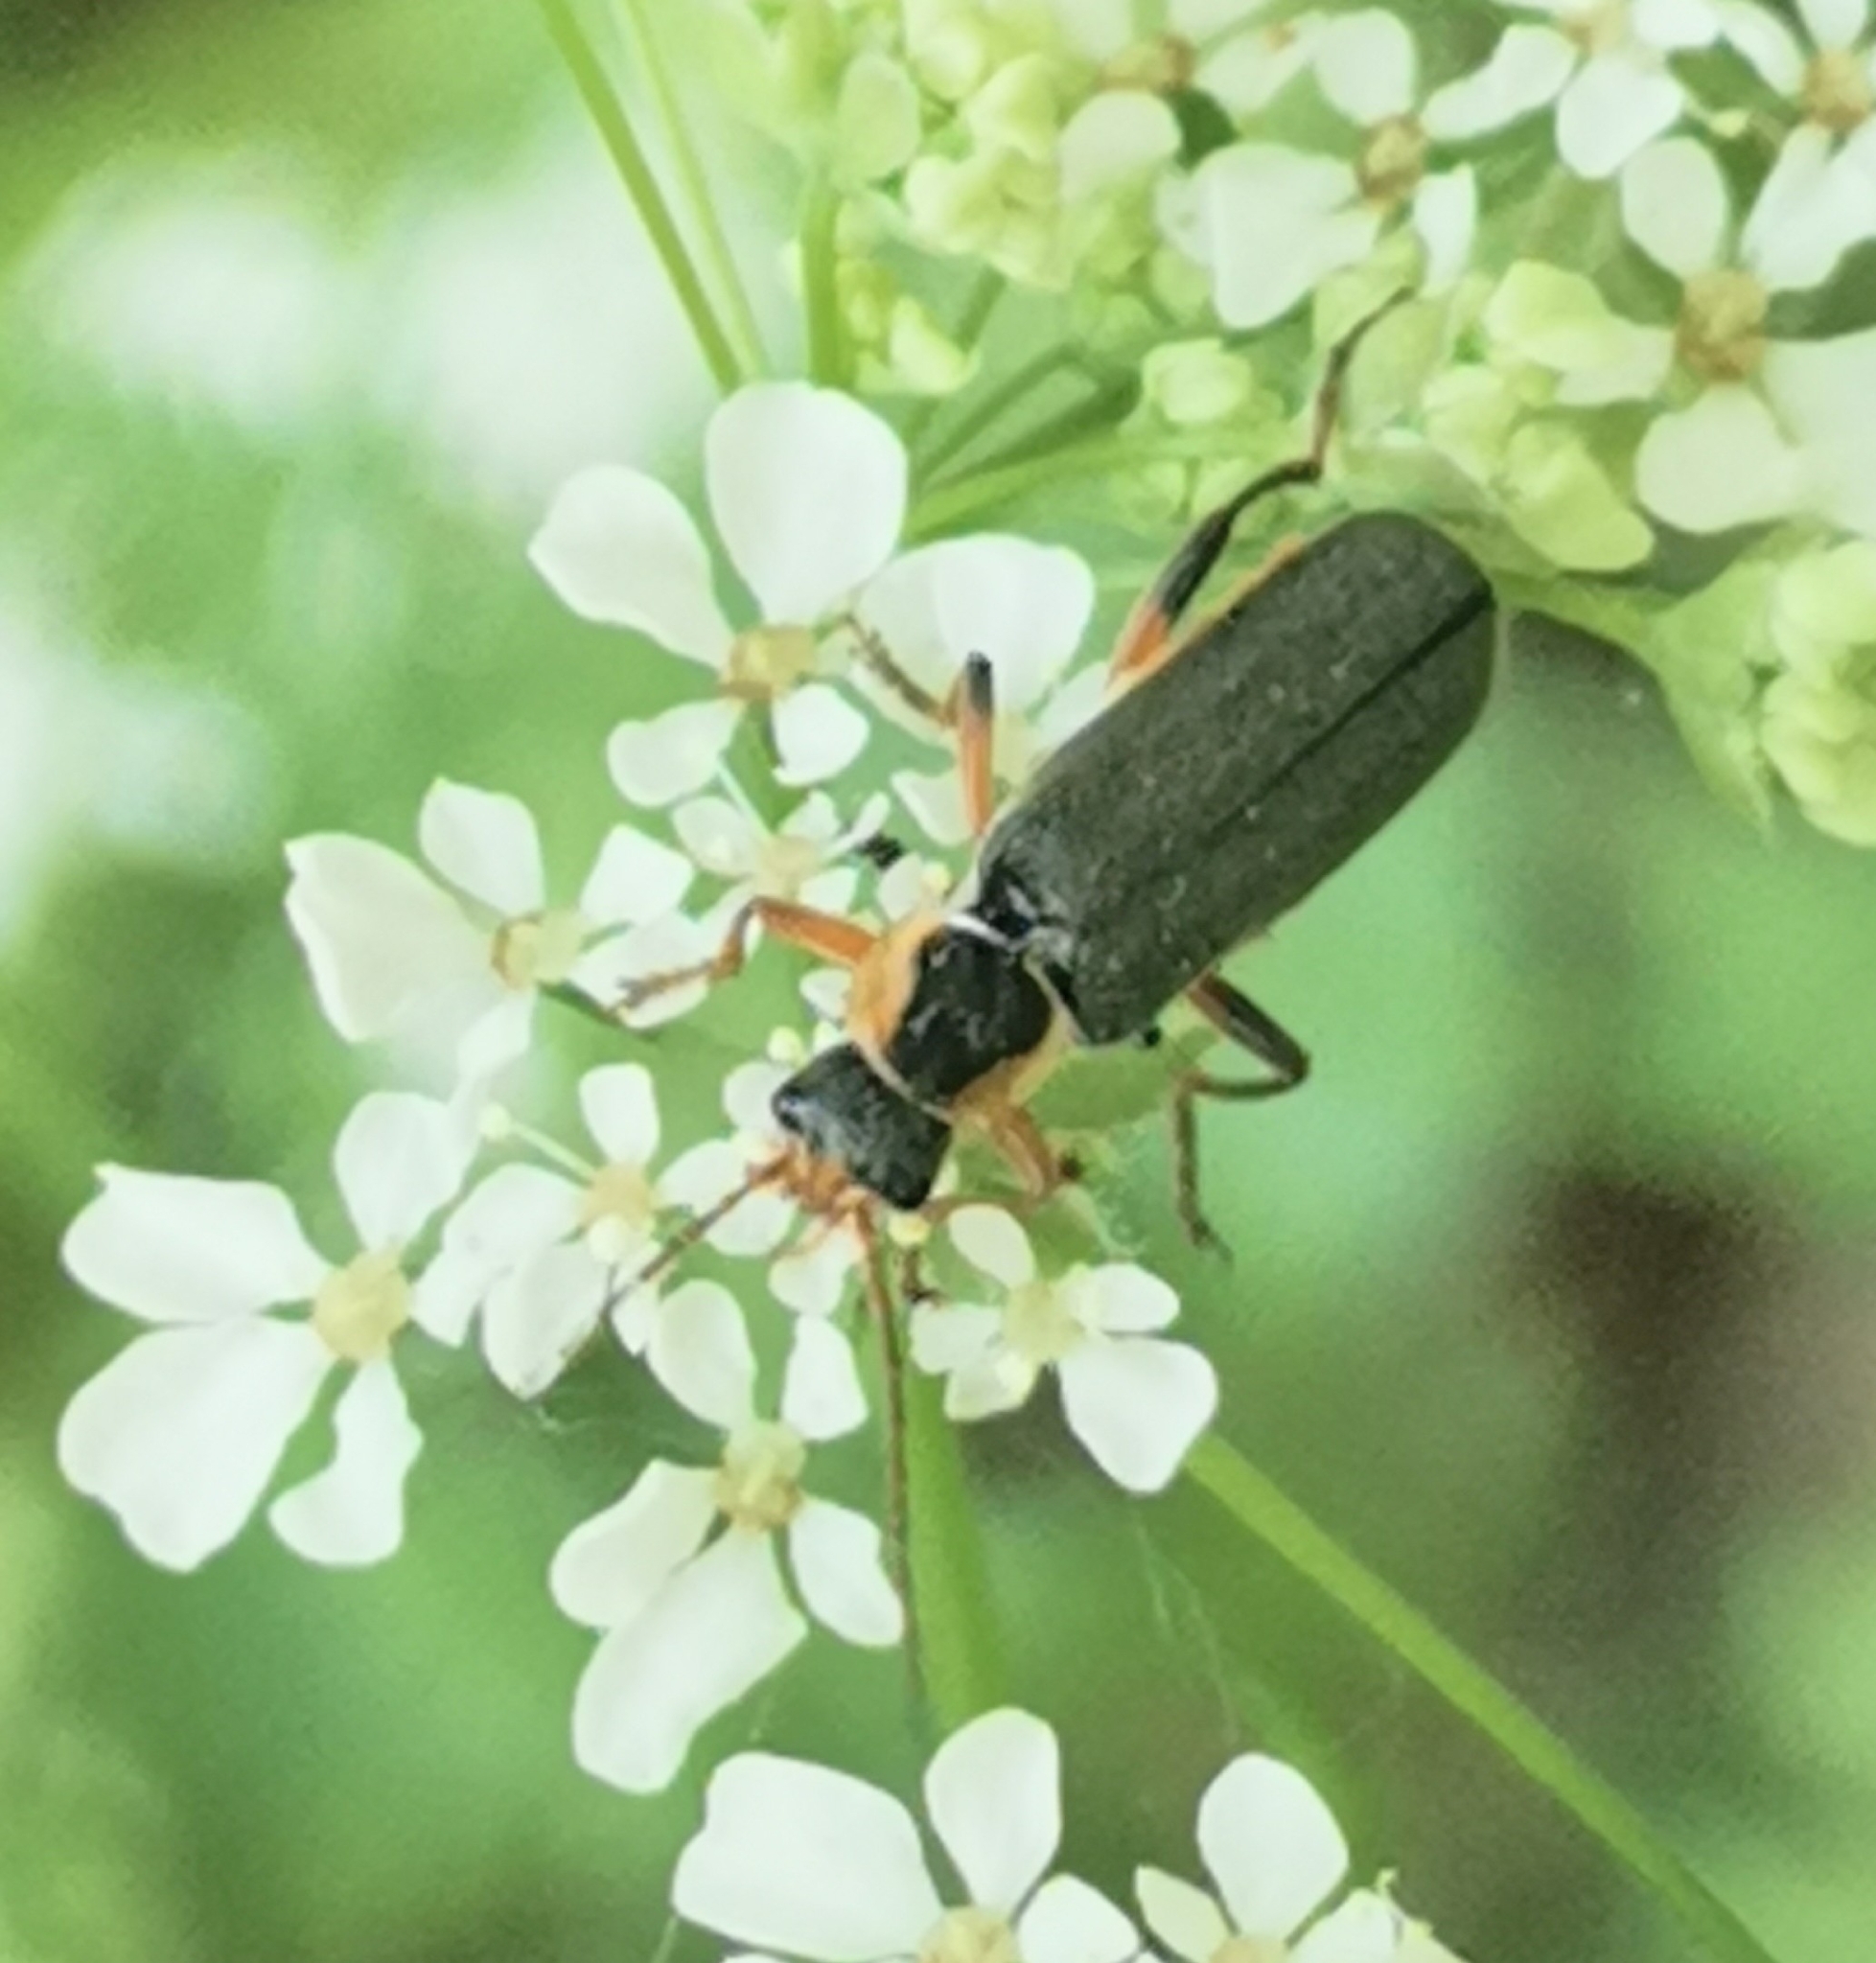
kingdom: Animalia
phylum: Arthropoda
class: Insecta
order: Coleoptera
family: Cantharidae
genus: Cantharis
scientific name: Cantharis nigricans
